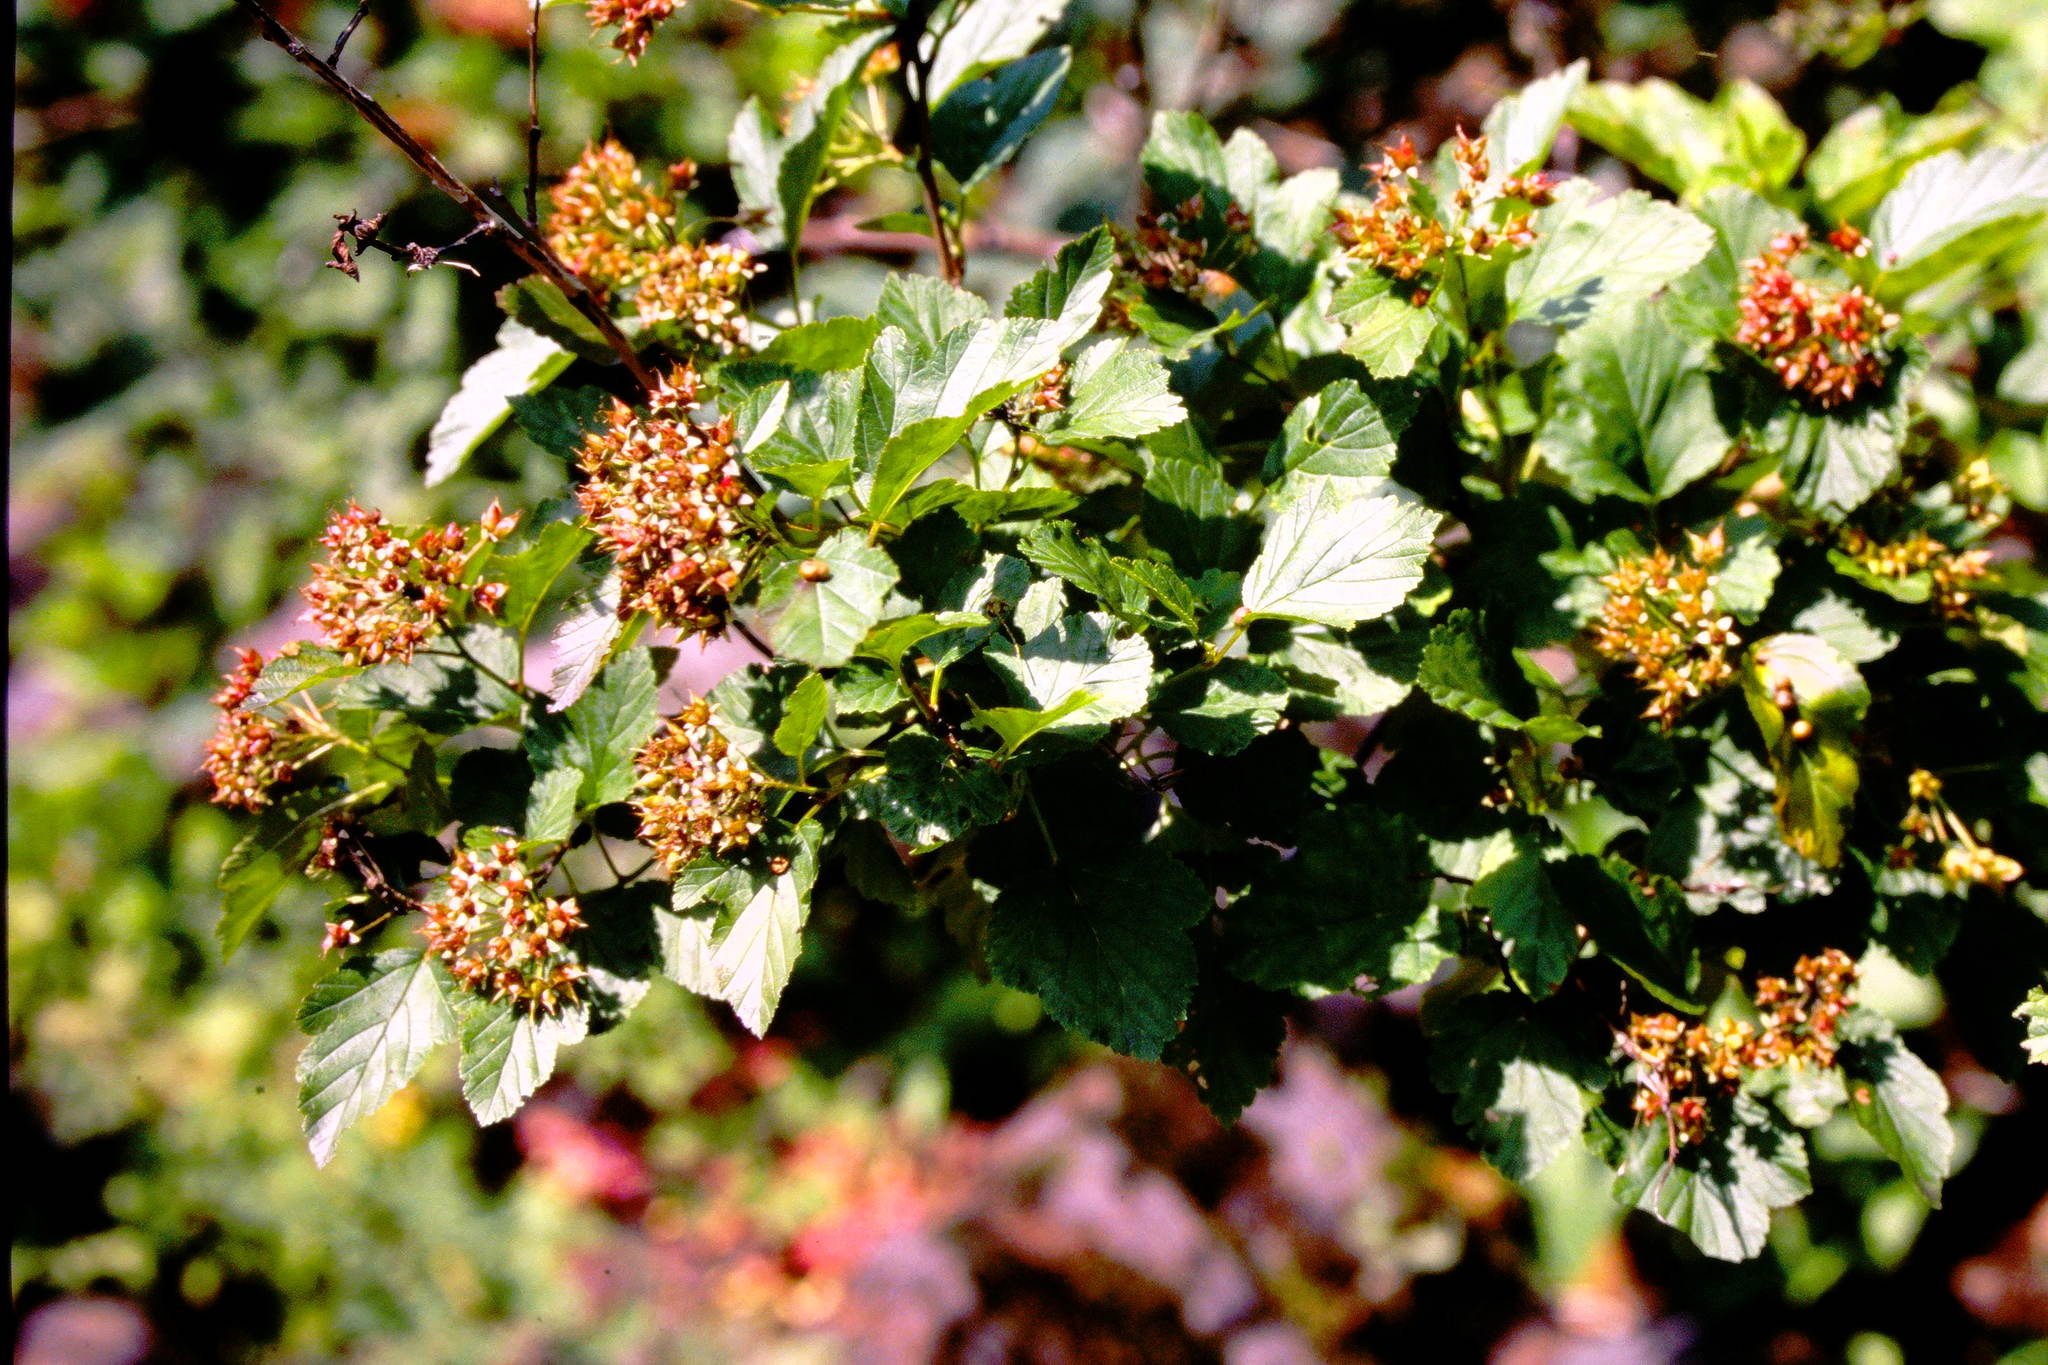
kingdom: Plantae
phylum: Tracheophyta
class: Magnoliopsida
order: Rosales
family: Rosaceae
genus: Physocarpus
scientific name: Physocarpus opulifolius
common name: Ninebark
